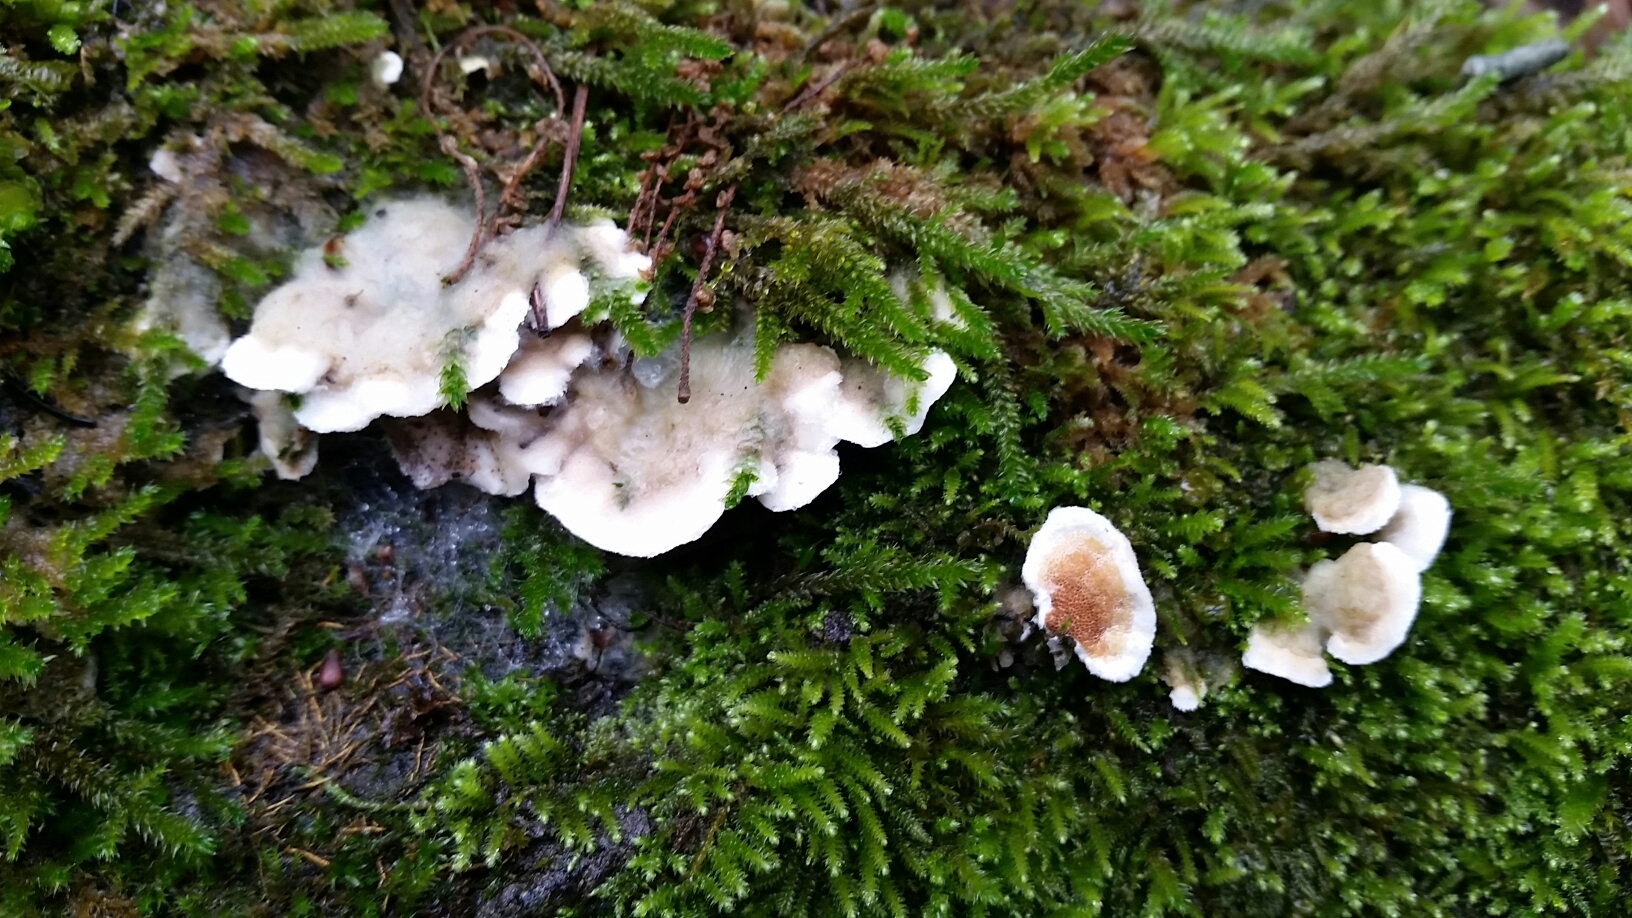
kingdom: Fungi
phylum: Basidiomycota
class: Agaricomycetes
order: Polyporales
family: Irpicaceae
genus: Vitreoporus
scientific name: Vitreoporus dichrous
